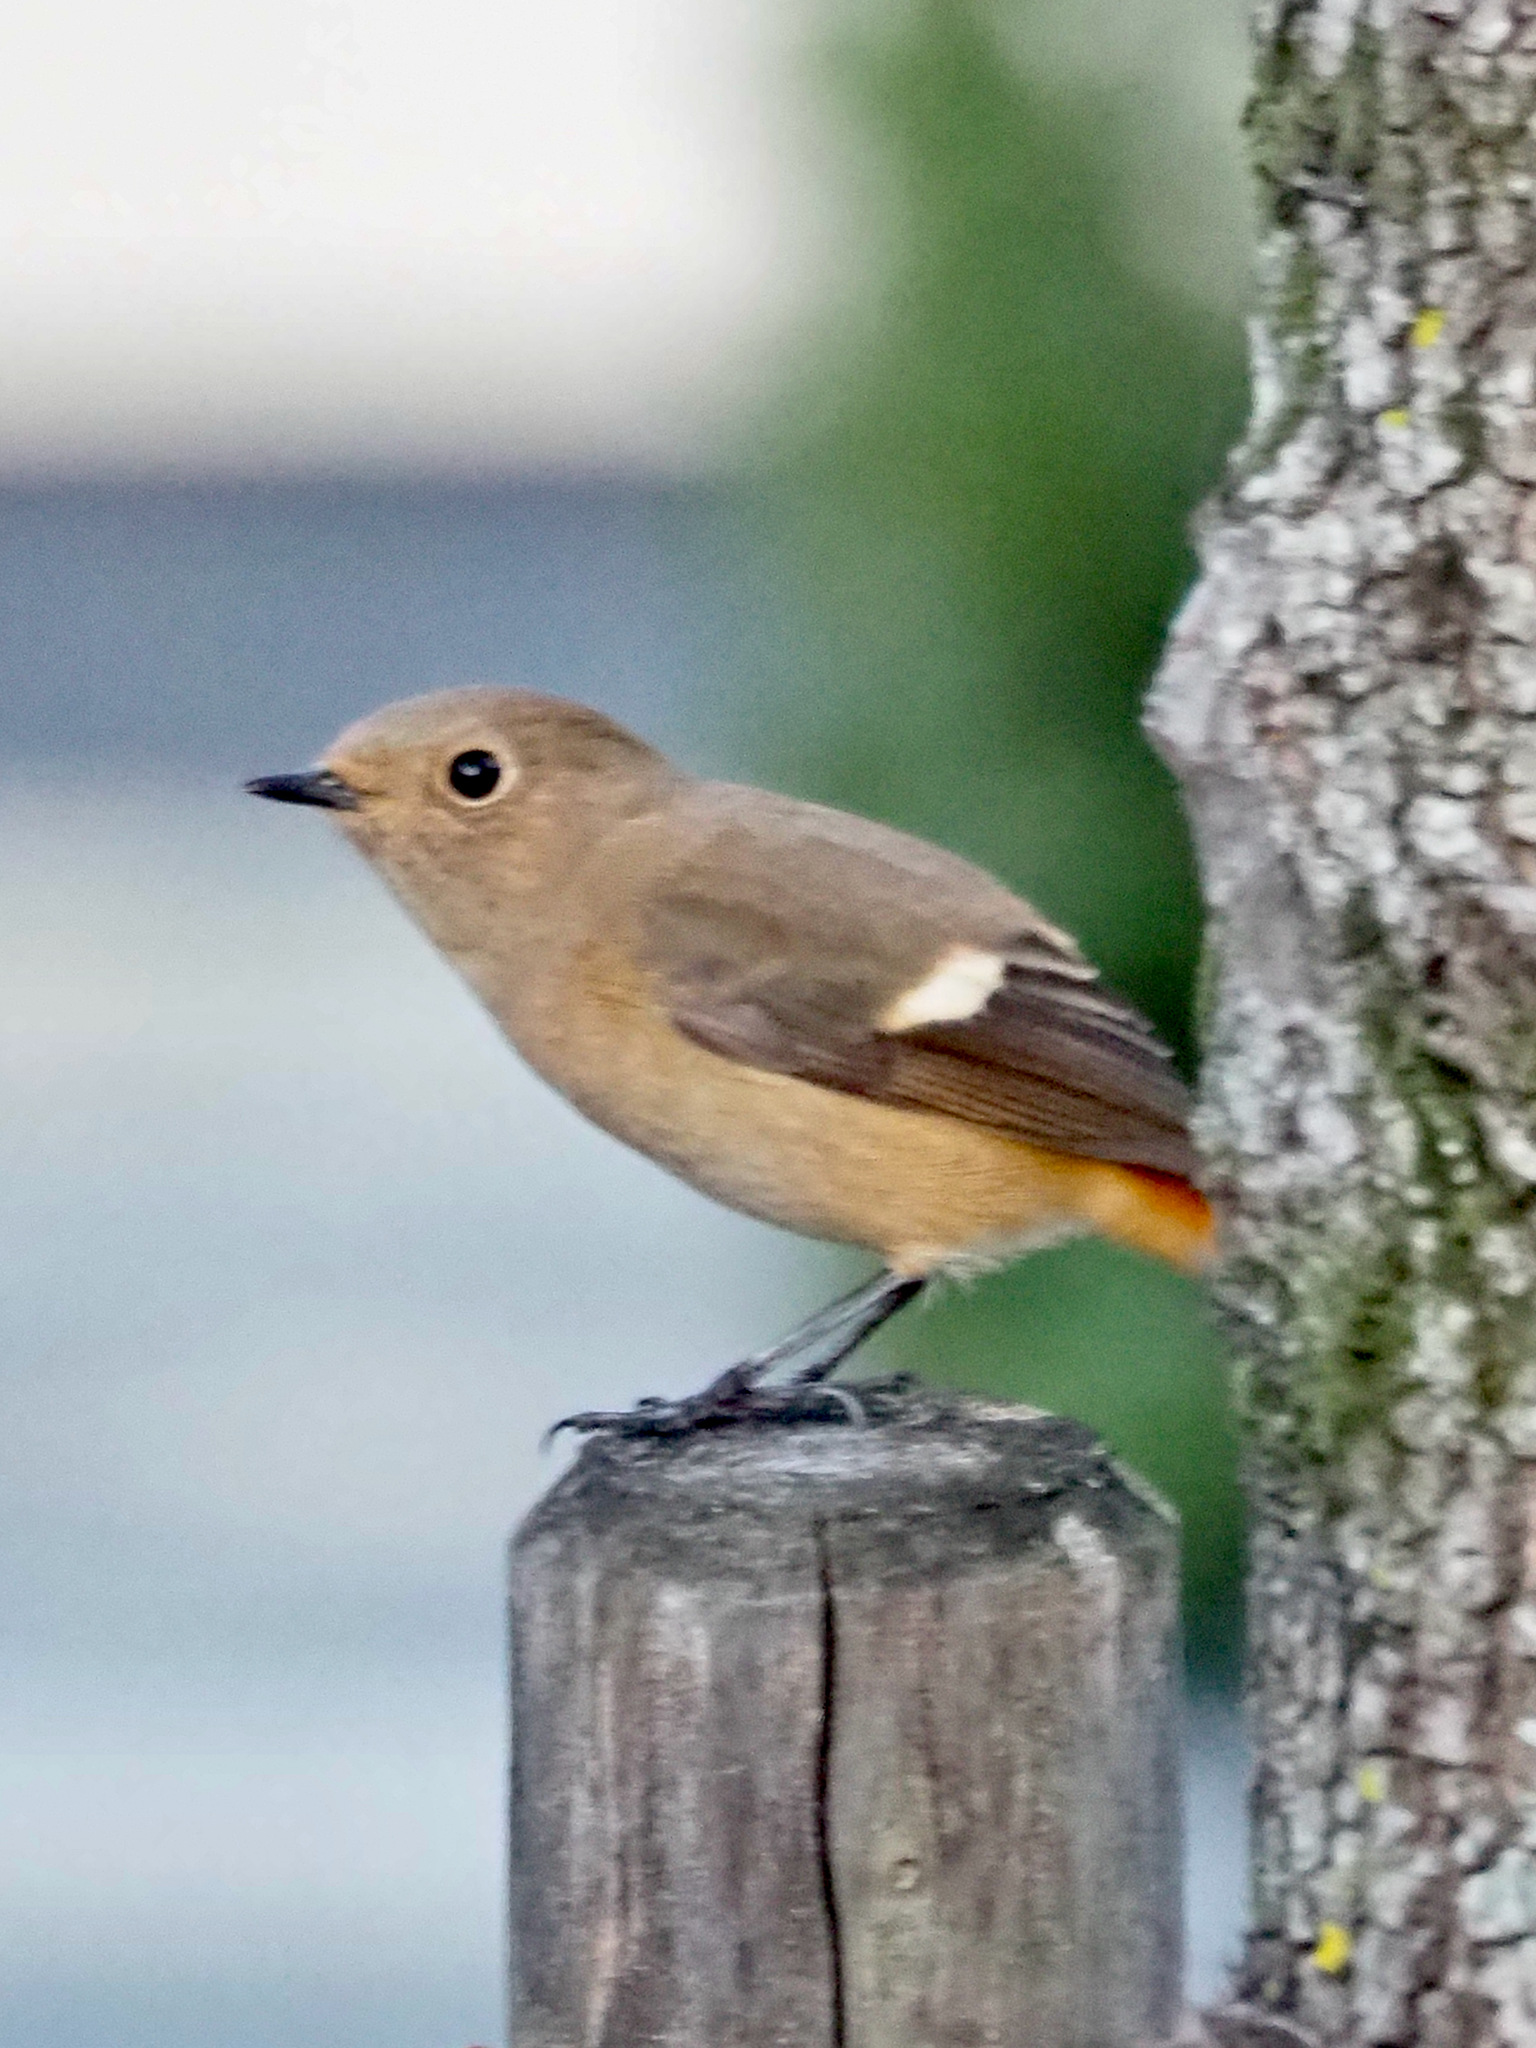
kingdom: Animalia
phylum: Chordata
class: Aves
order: Passeriformes
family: Muscicapidae
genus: Phoenicurus
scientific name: Phoenicurus auroreus
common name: Daurian redstart
